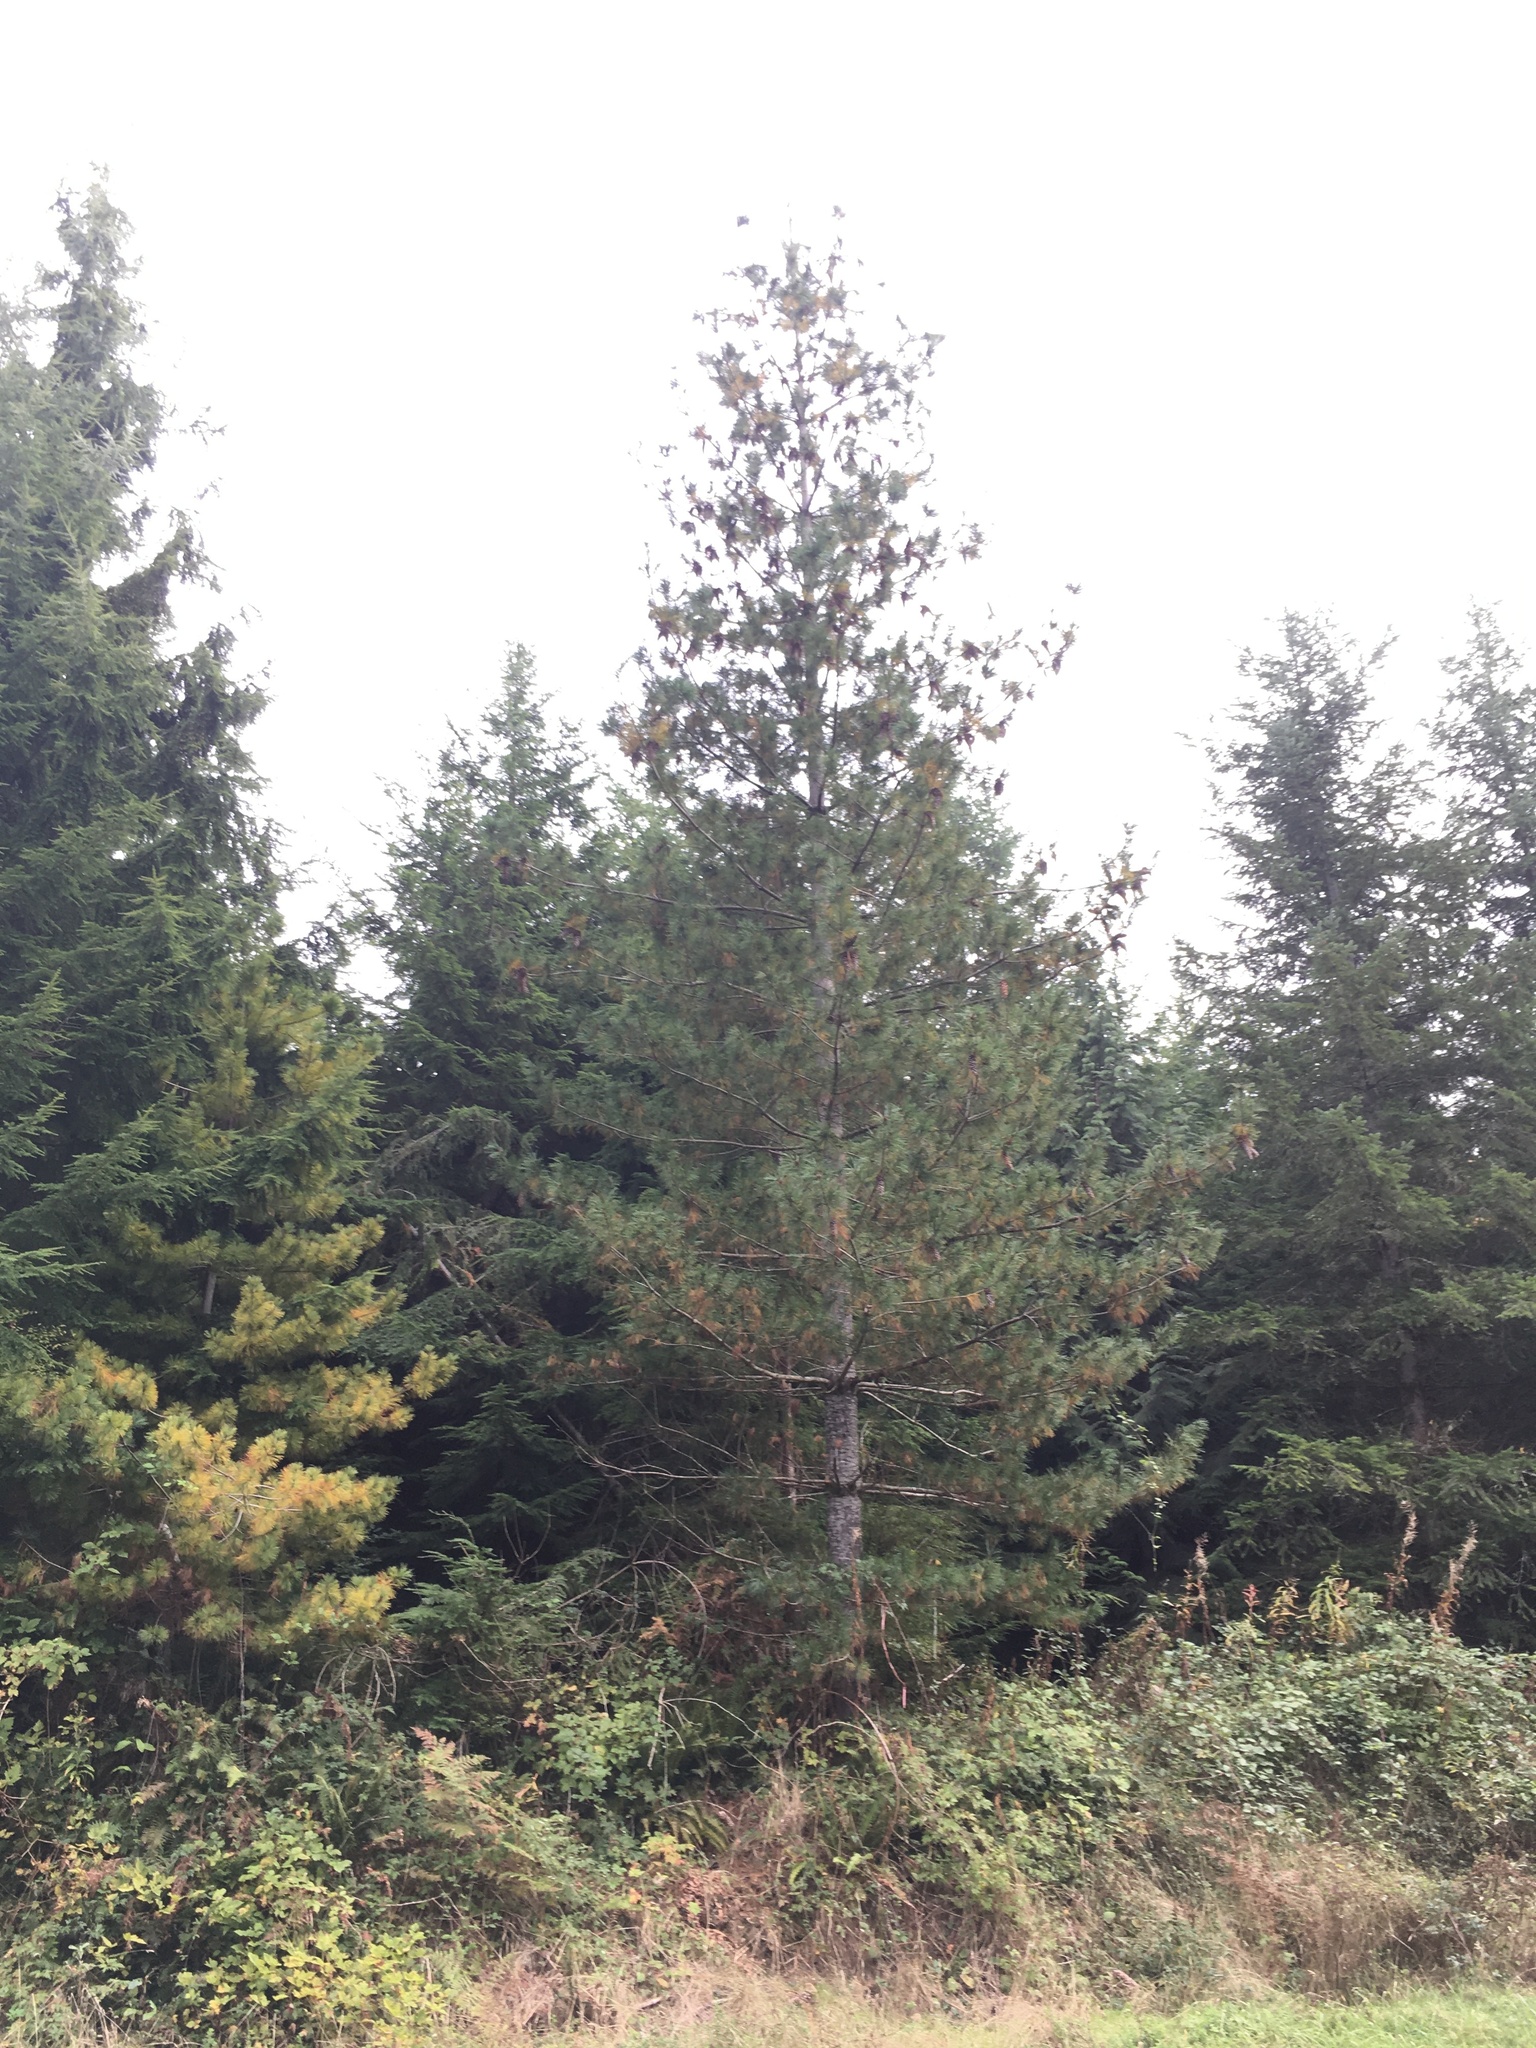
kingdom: Plantae
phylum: Tracheophyta
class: Pinopsida
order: Pinales
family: Pinaceae
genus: Pinus
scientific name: Pinus monticola
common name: Western white pine
